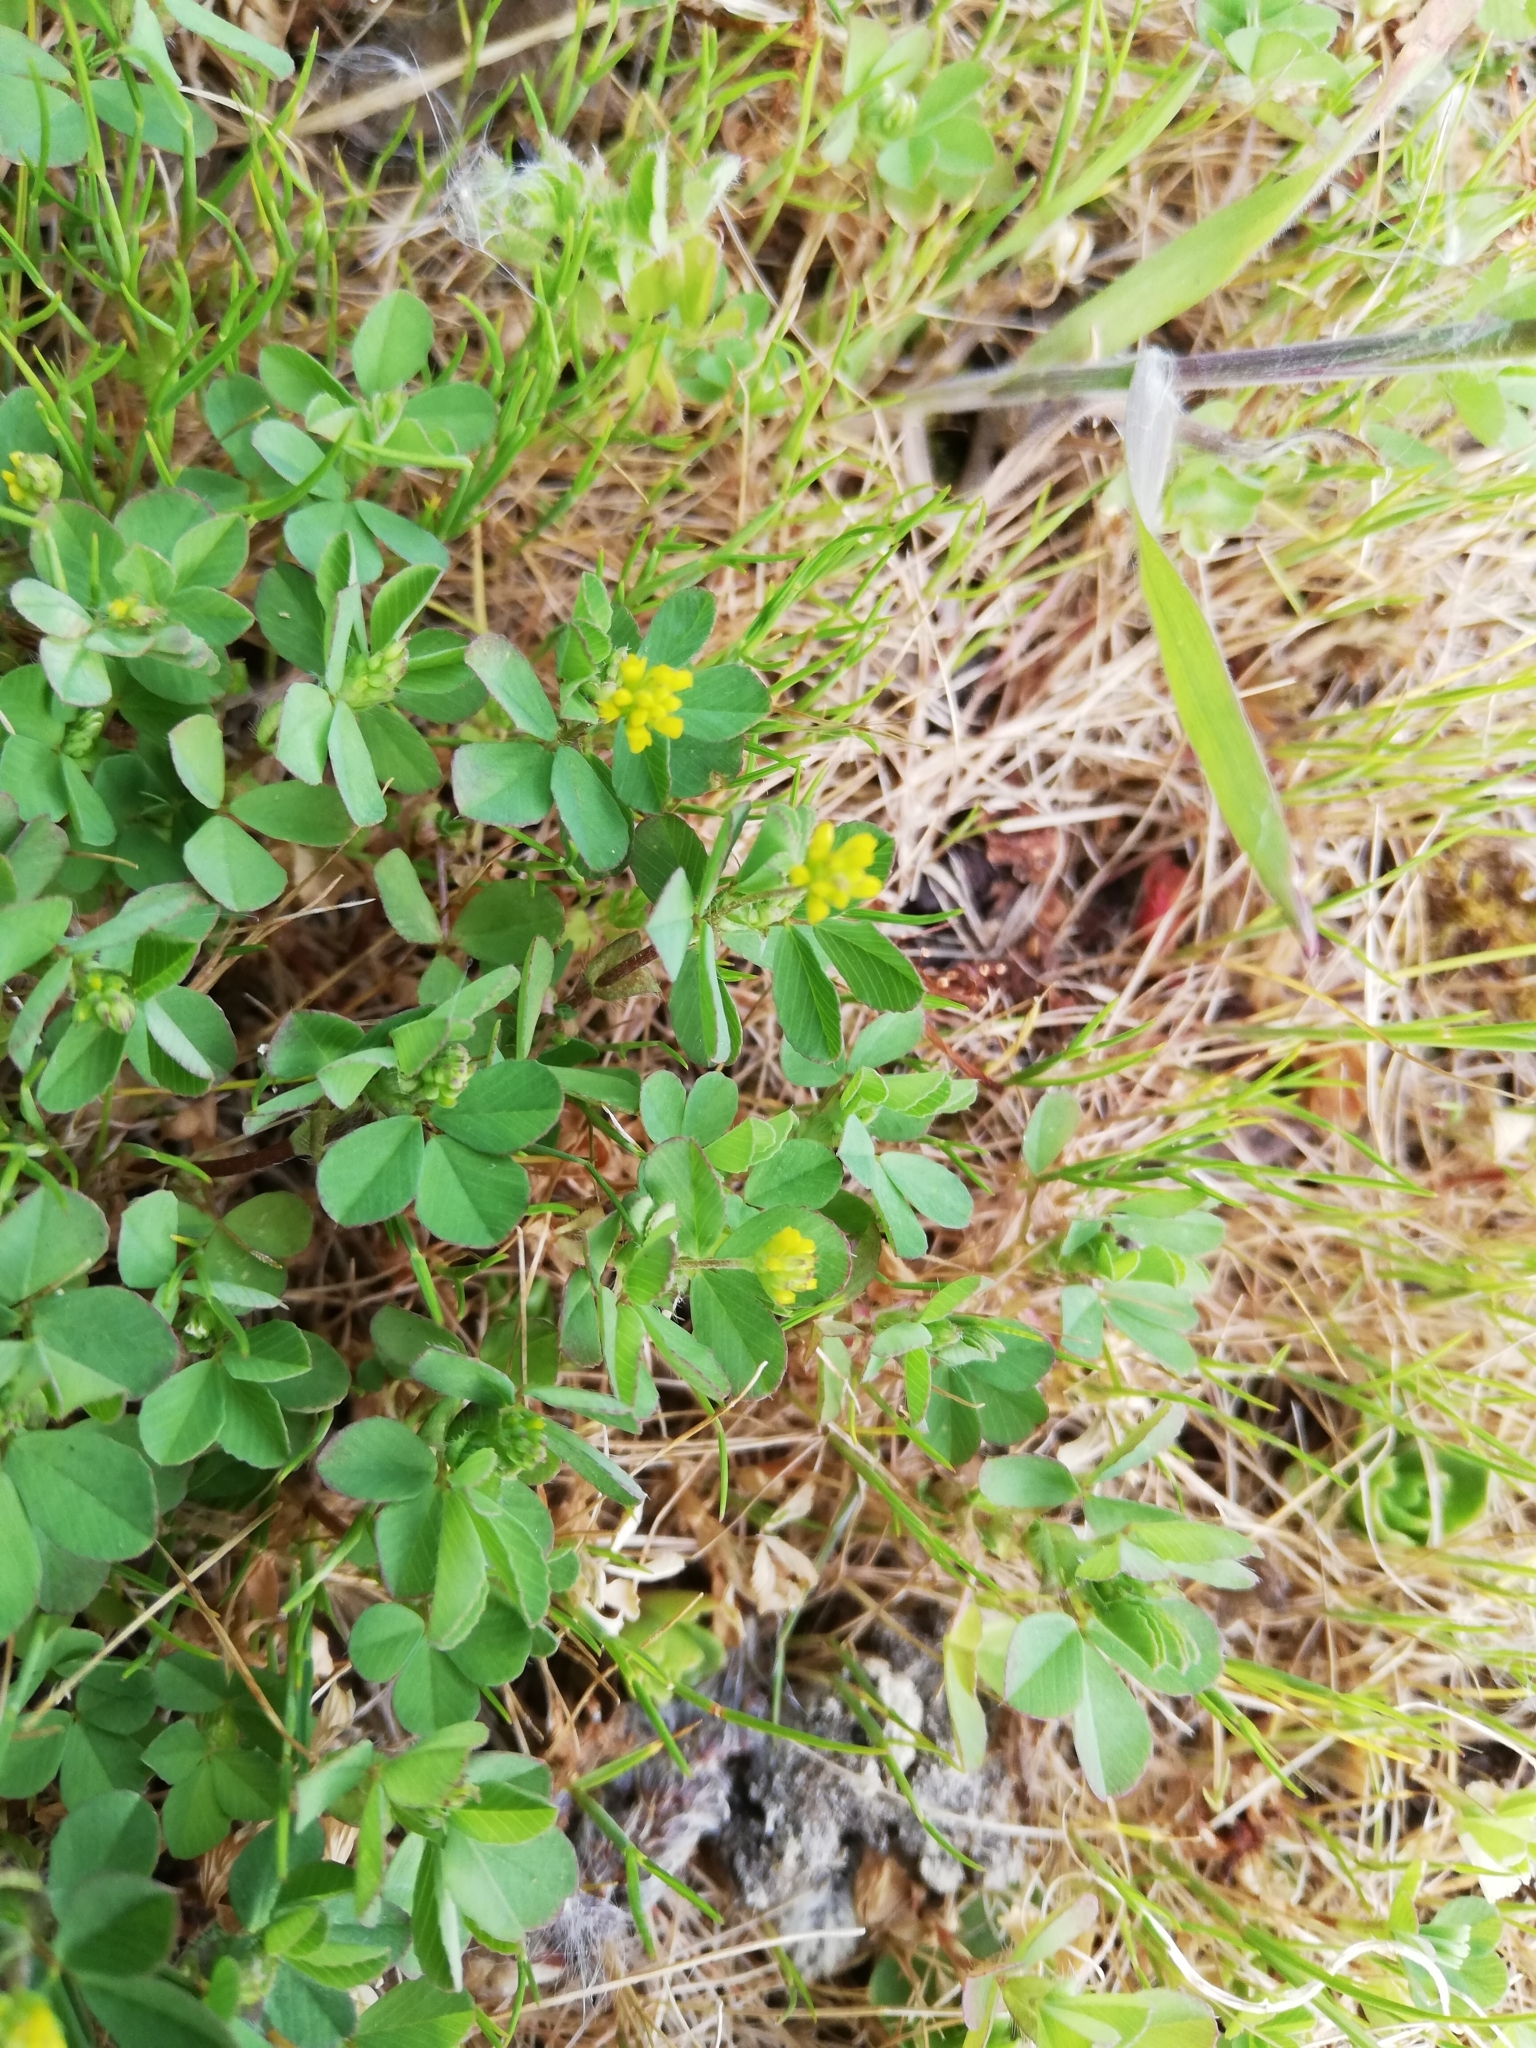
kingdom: Plantae
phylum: Tracheophyta
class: Magnoliopsida
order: Fabales
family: Fabaceae
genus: Trifolium
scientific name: Trifolium dubium
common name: Suckling clover
